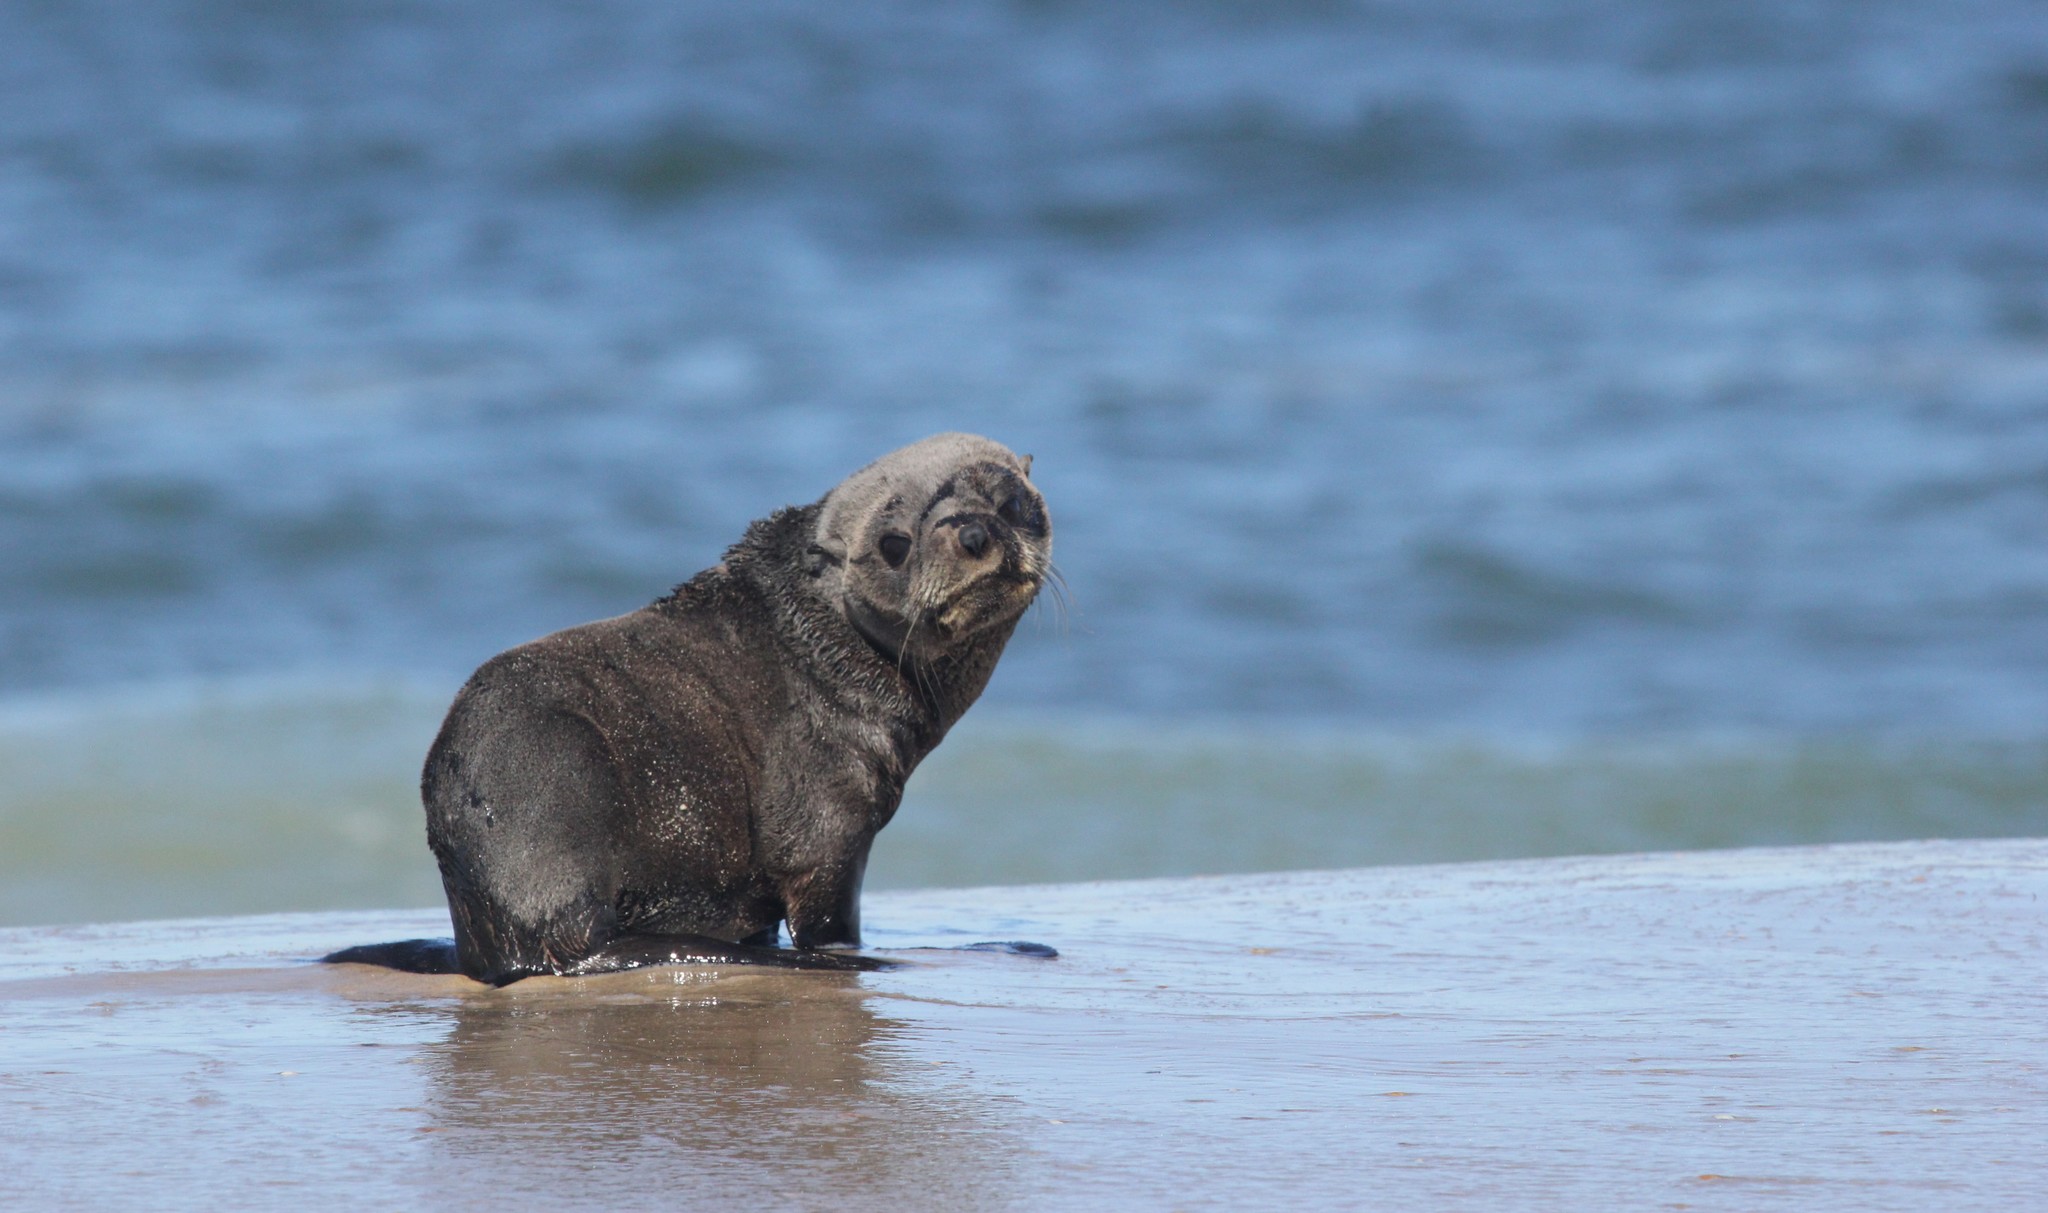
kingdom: Animalia
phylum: Chordata
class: Mammalia
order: Carnivora
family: Otariidae
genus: Arctocephalus
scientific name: Arctocephalus australis
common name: South american fur seal
